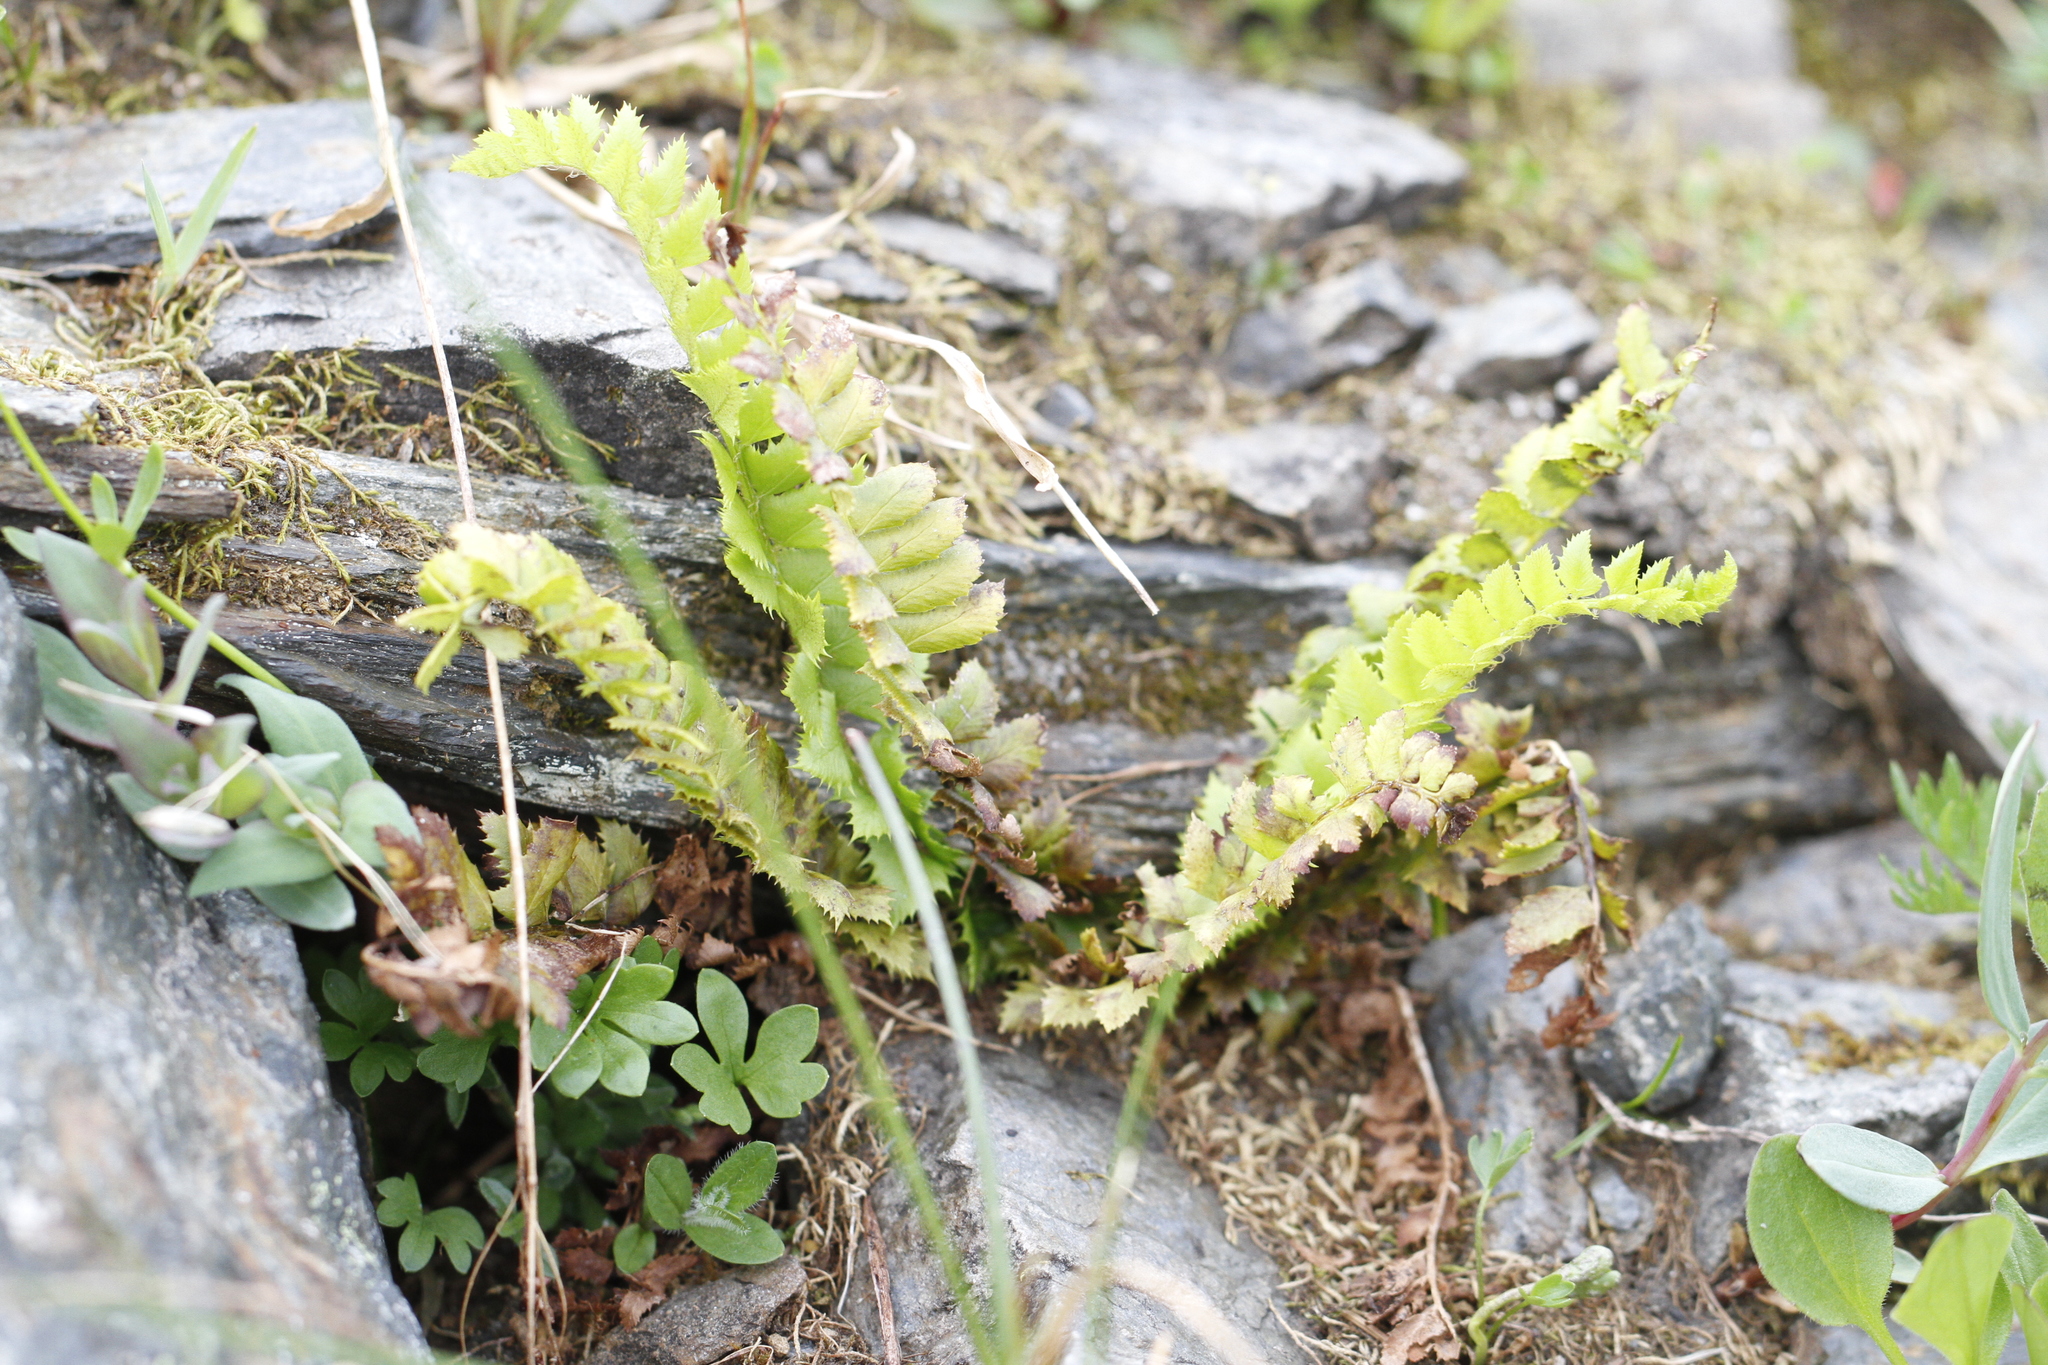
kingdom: Plantae
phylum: Tracheophyta
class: Polypodiopsida
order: Polypodiales
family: Dryopteridaceae
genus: Polystichum
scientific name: Polystichum lonchitis
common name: Holly fern
